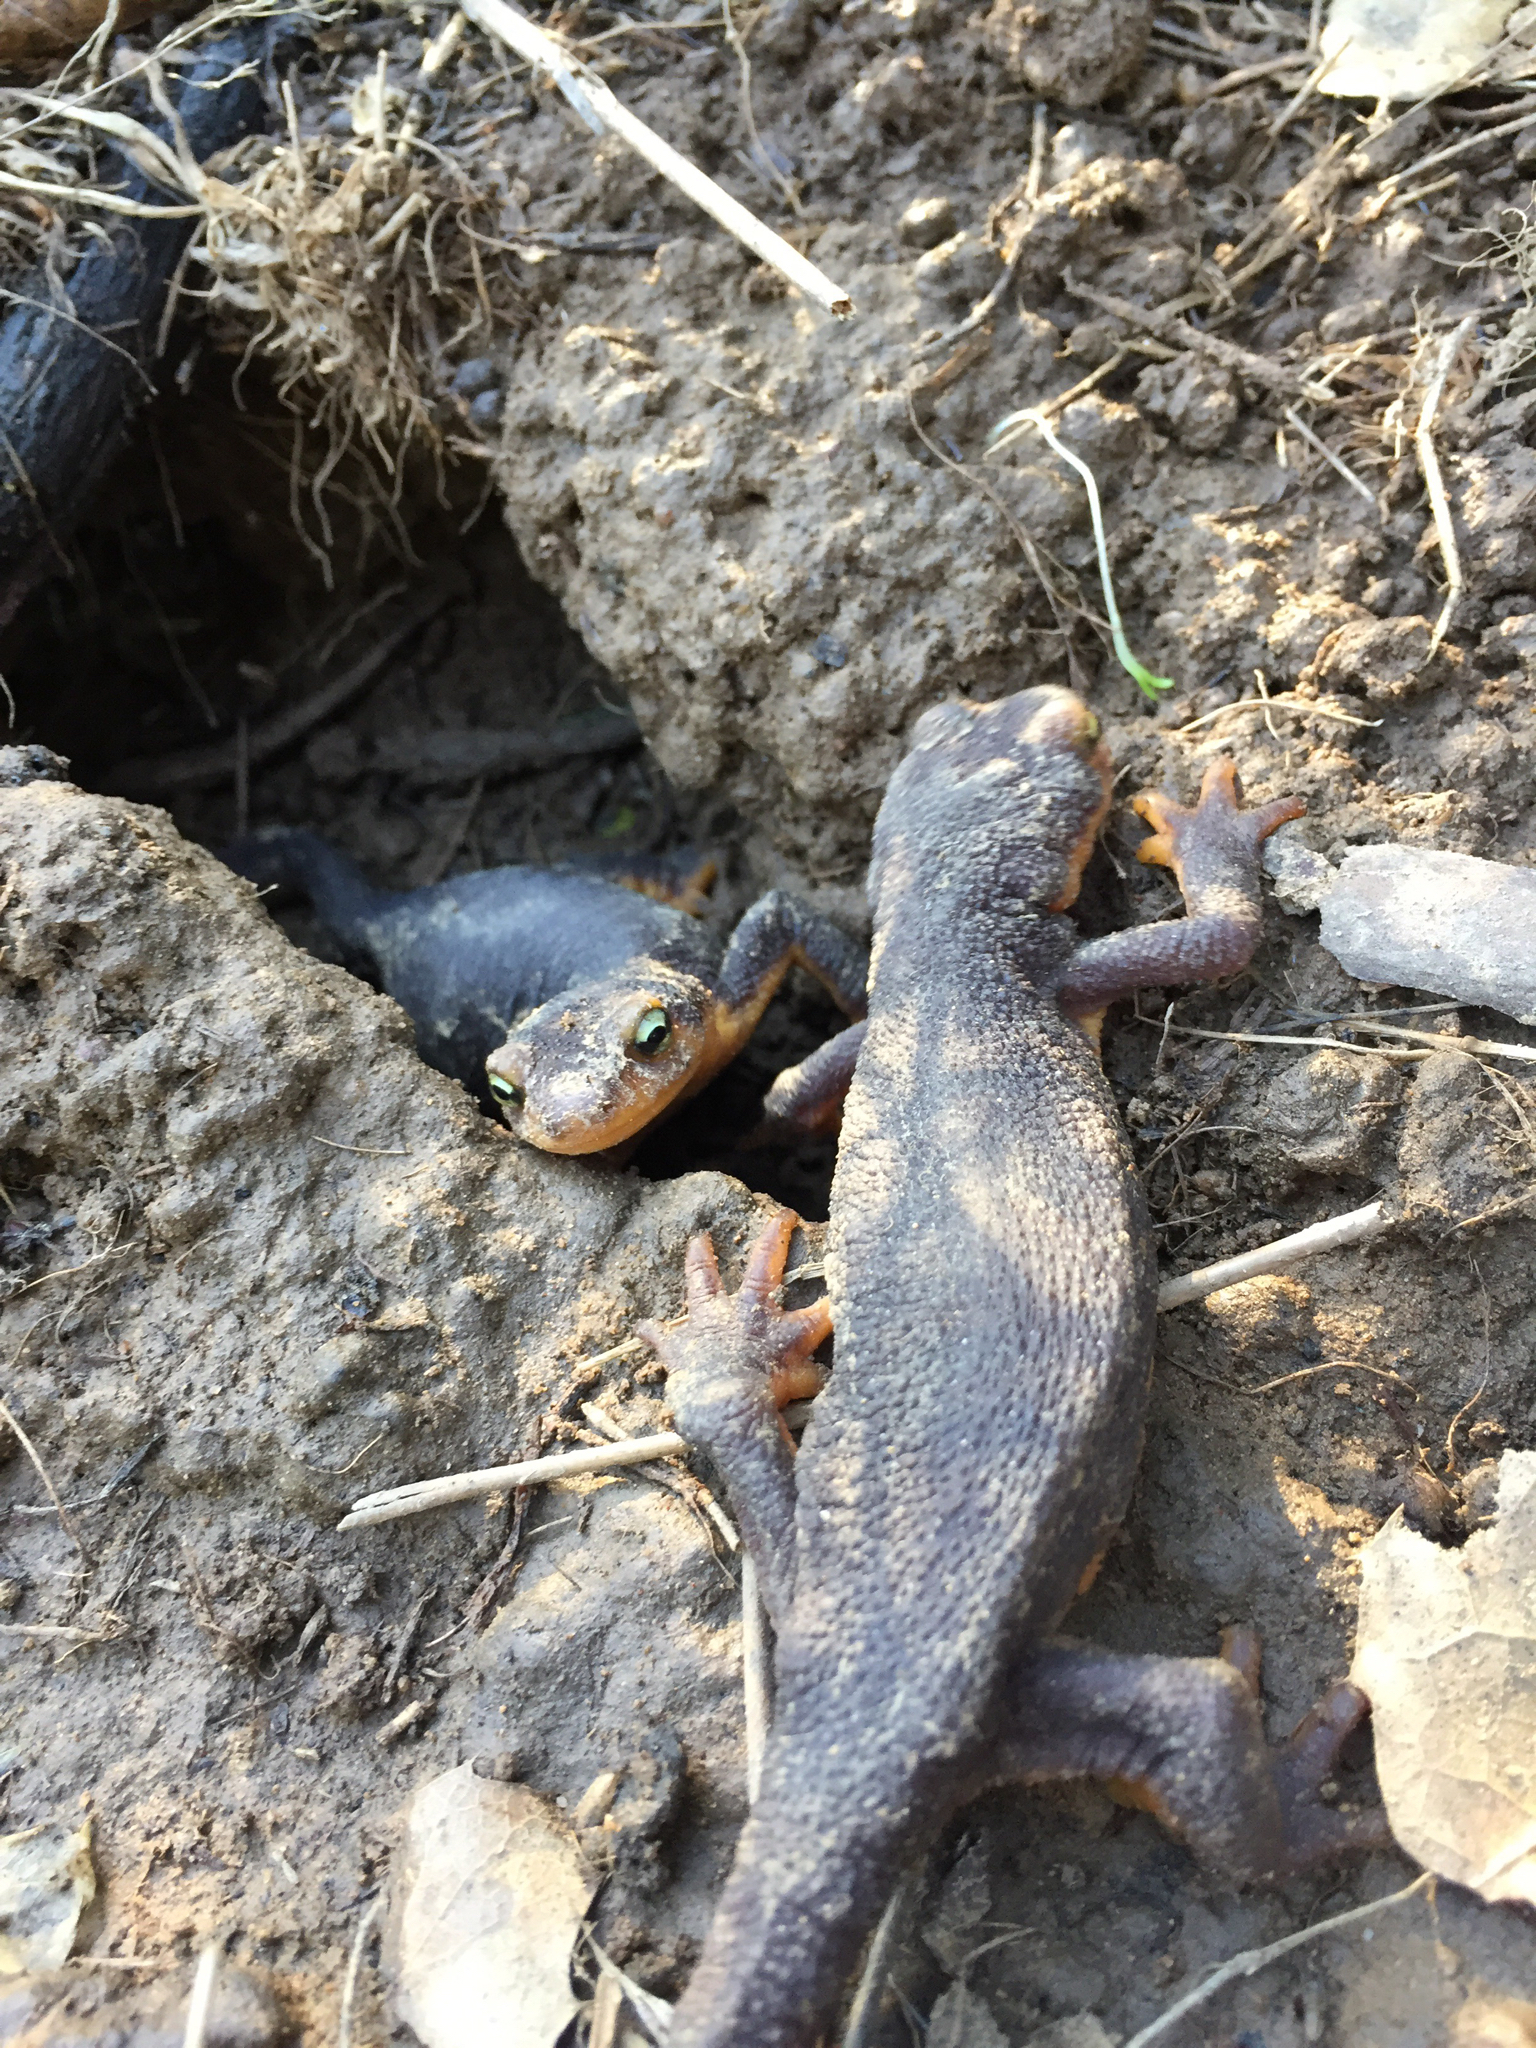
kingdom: Animalia
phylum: Chordata
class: Amphibia
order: Caudata
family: Salamandridae
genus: Taricha
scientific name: Taricha torosa
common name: California newt
